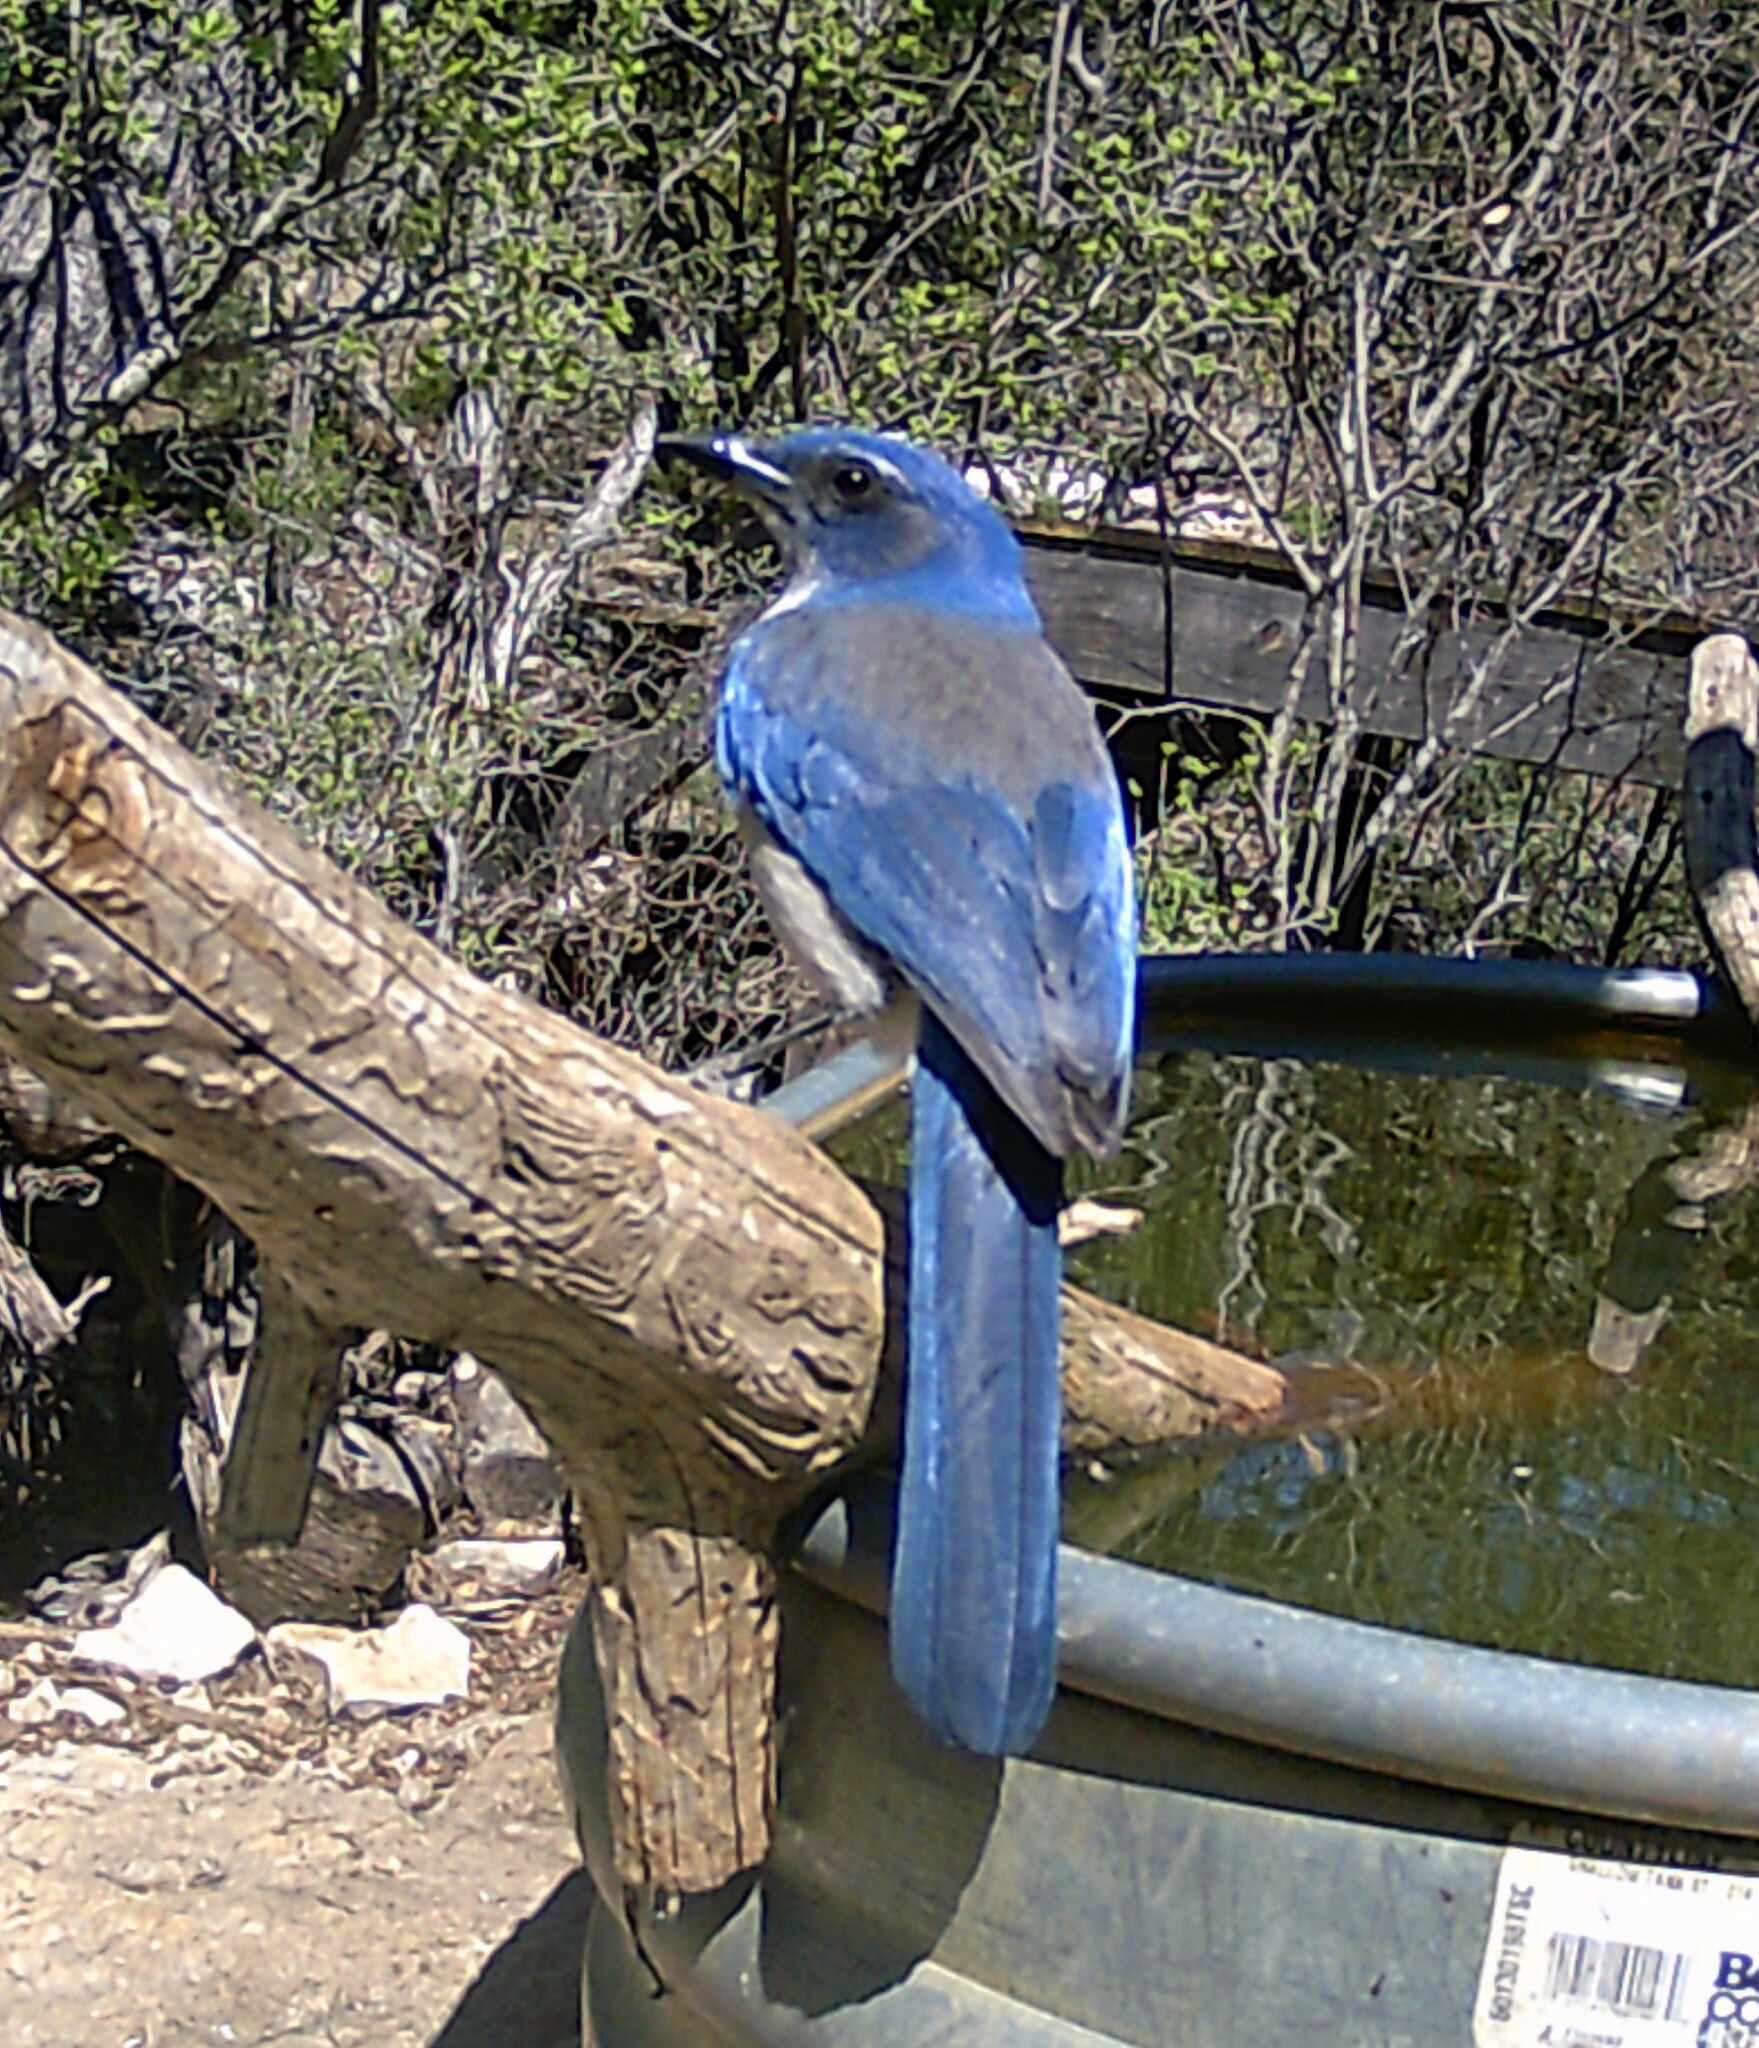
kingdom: Animalia
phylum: Chordata
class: Aves
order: Passeriformes
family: Corvidae
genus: Aphelocoma
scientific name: Aphelocoma woodhouseii
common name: Woodhouse's scrub-jay
